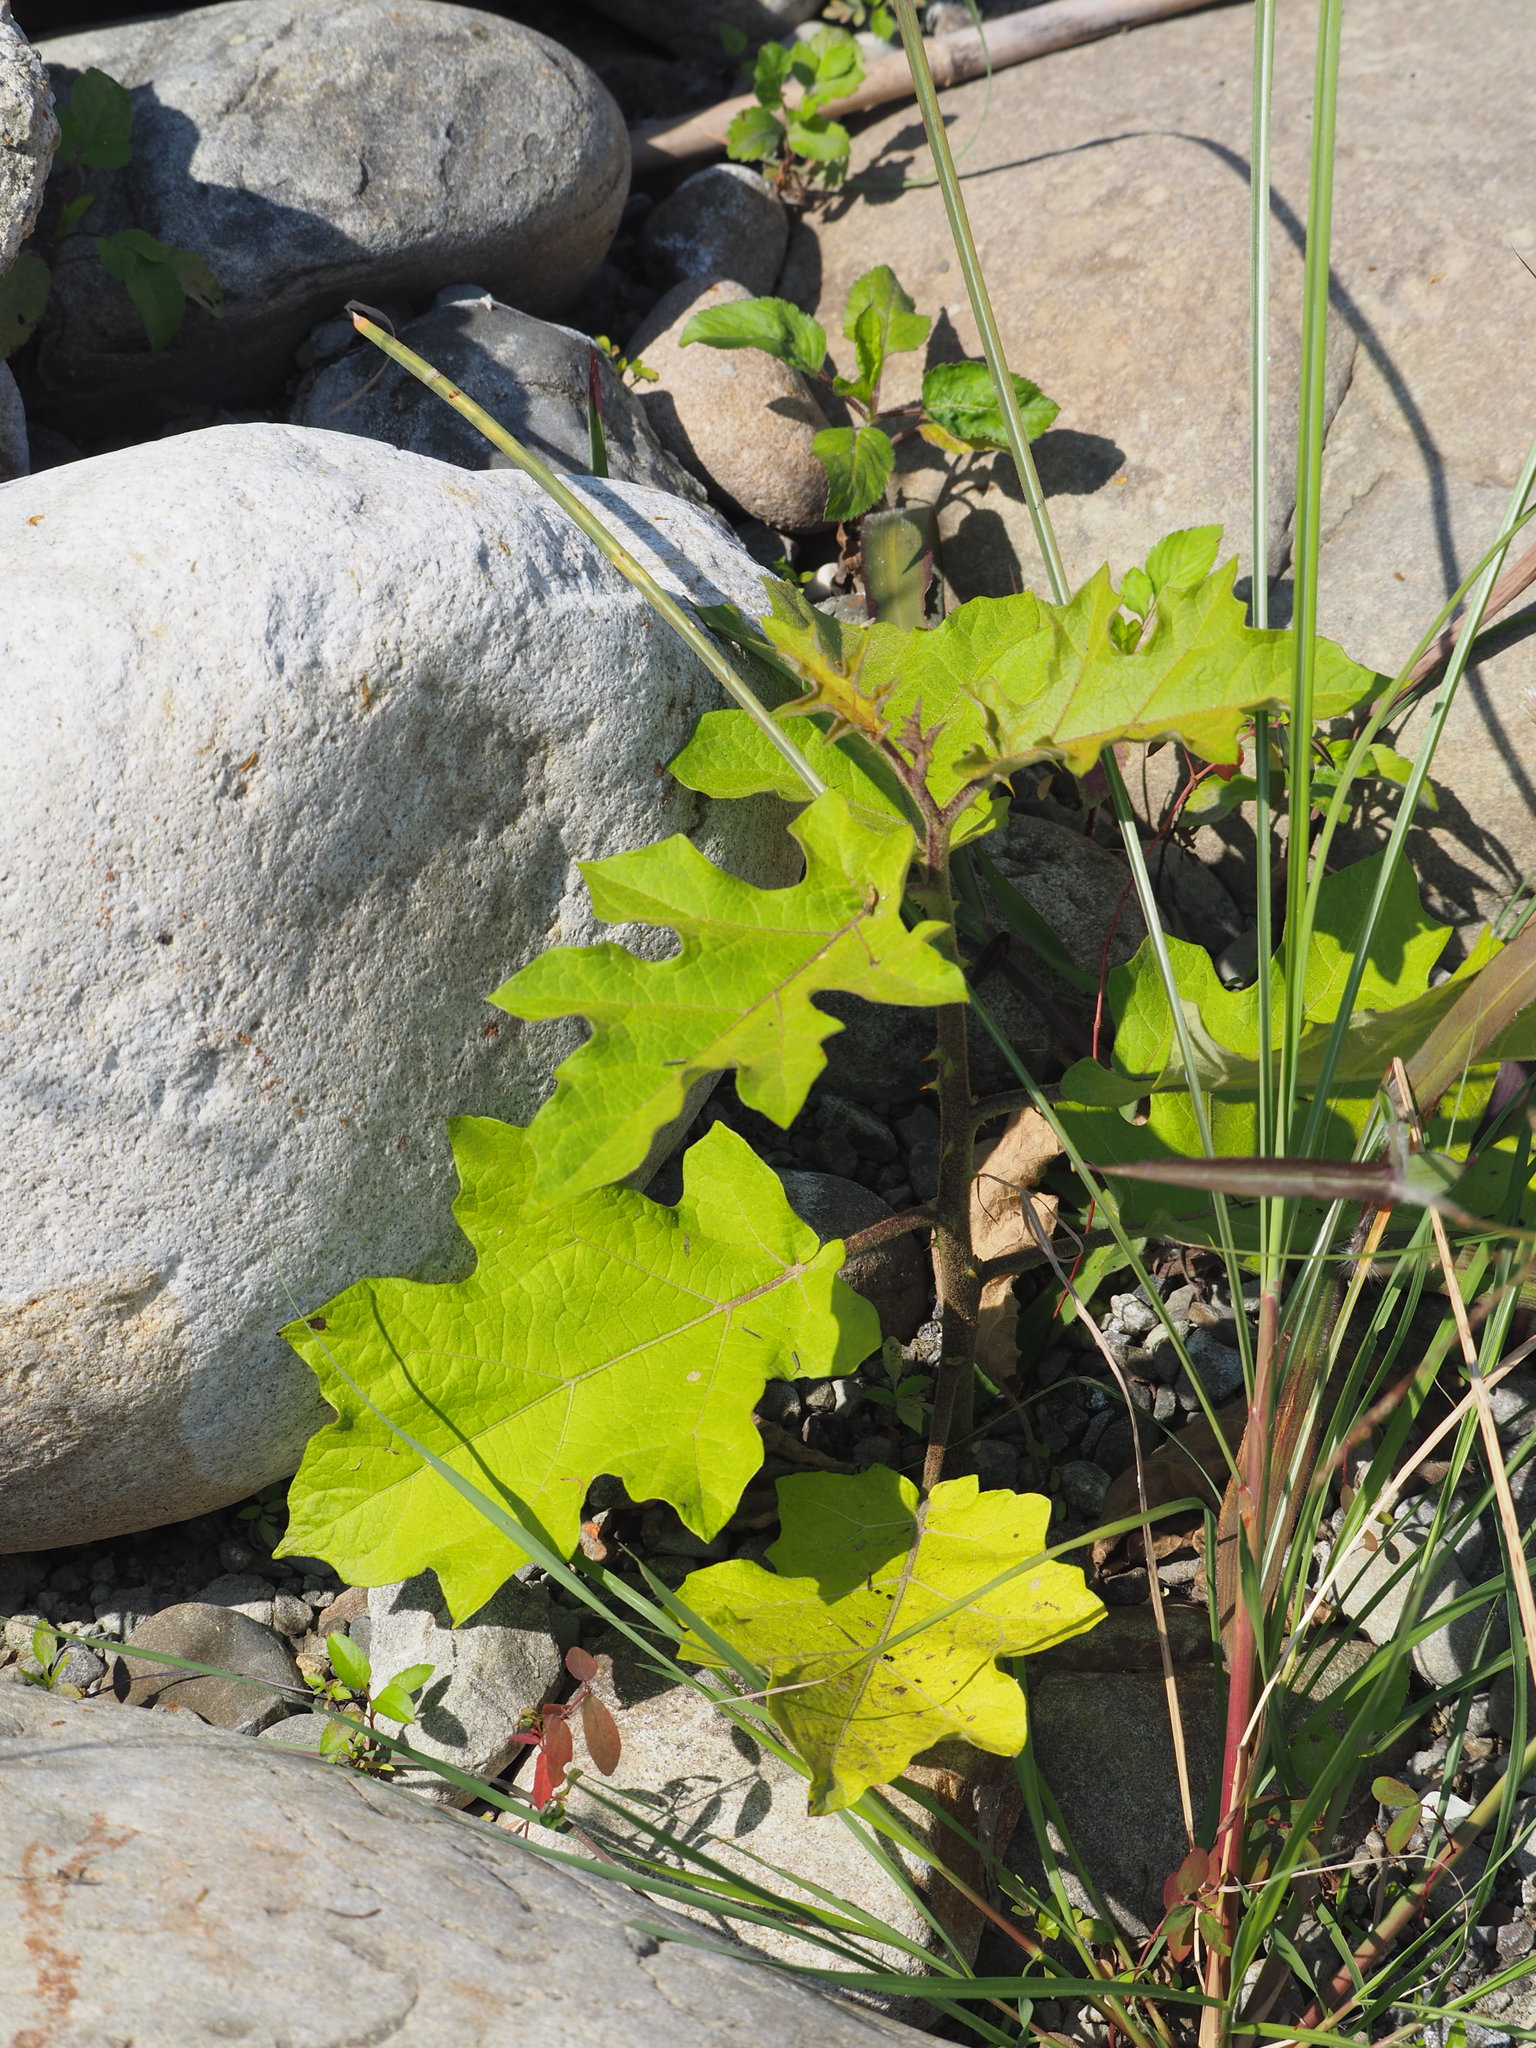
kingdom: Plantae
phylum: Tracheophyta
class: Magnoliopsida
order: Solanales
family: Solanaceae
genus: Solanum
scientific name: Solanum torvum
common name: Turkey berry
